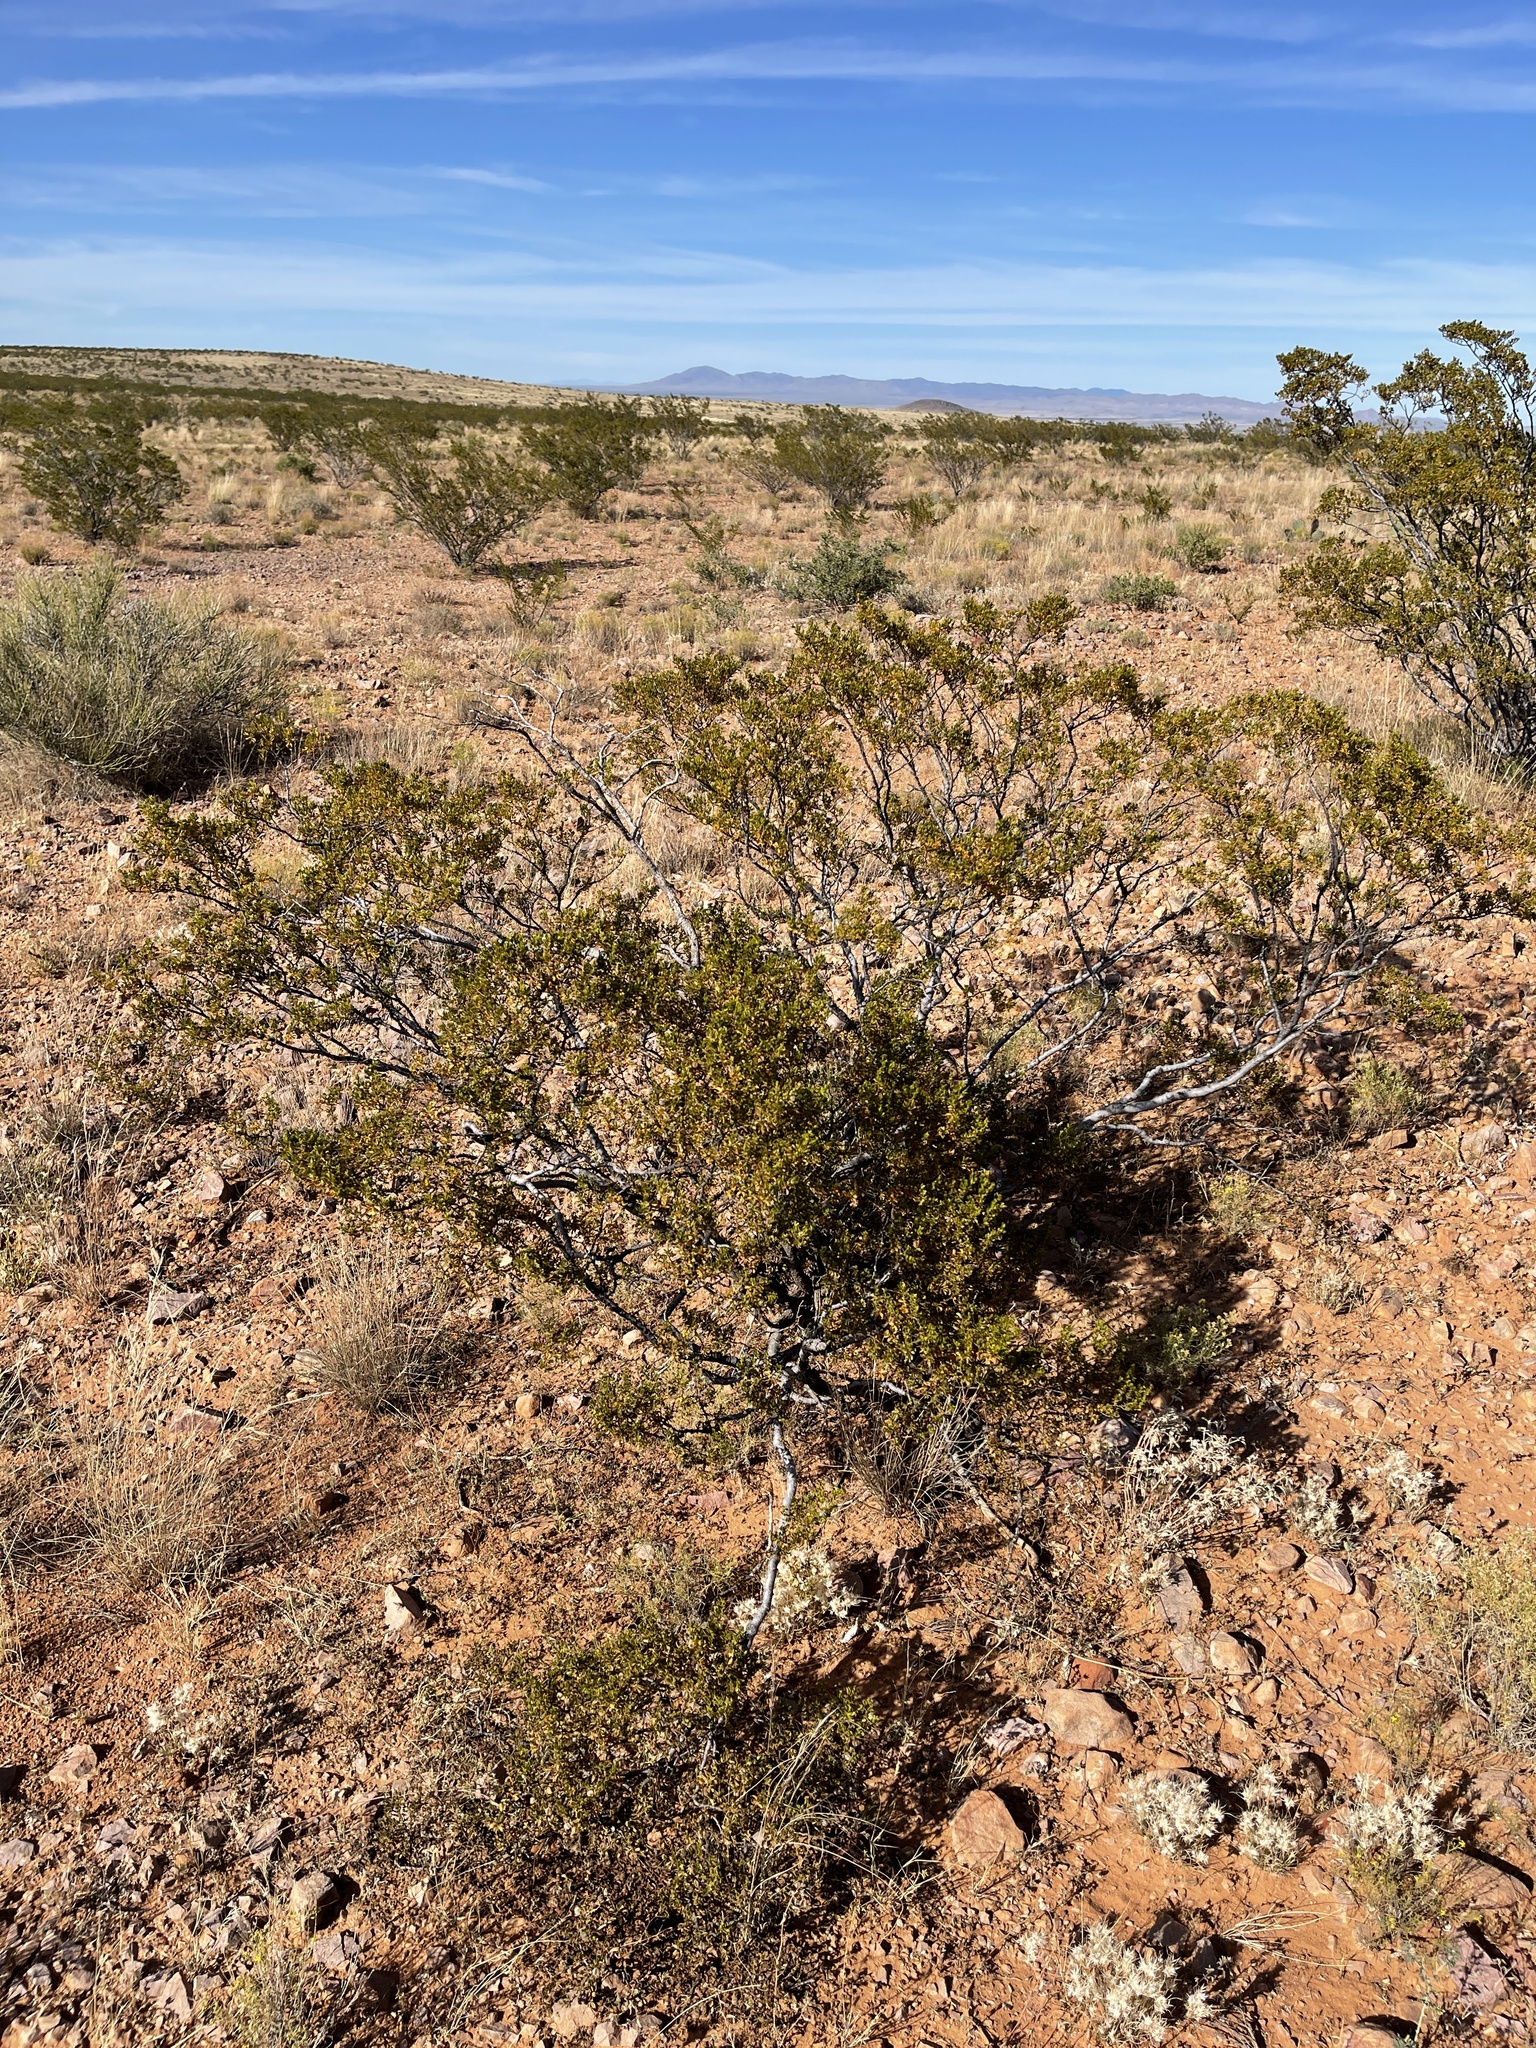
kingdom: Plantae
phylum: Tracheophyta
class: Magnoliopsida
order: Zygophyllales
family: Zygophyllaceae
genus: Larrea
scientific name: Larrea tridentata
